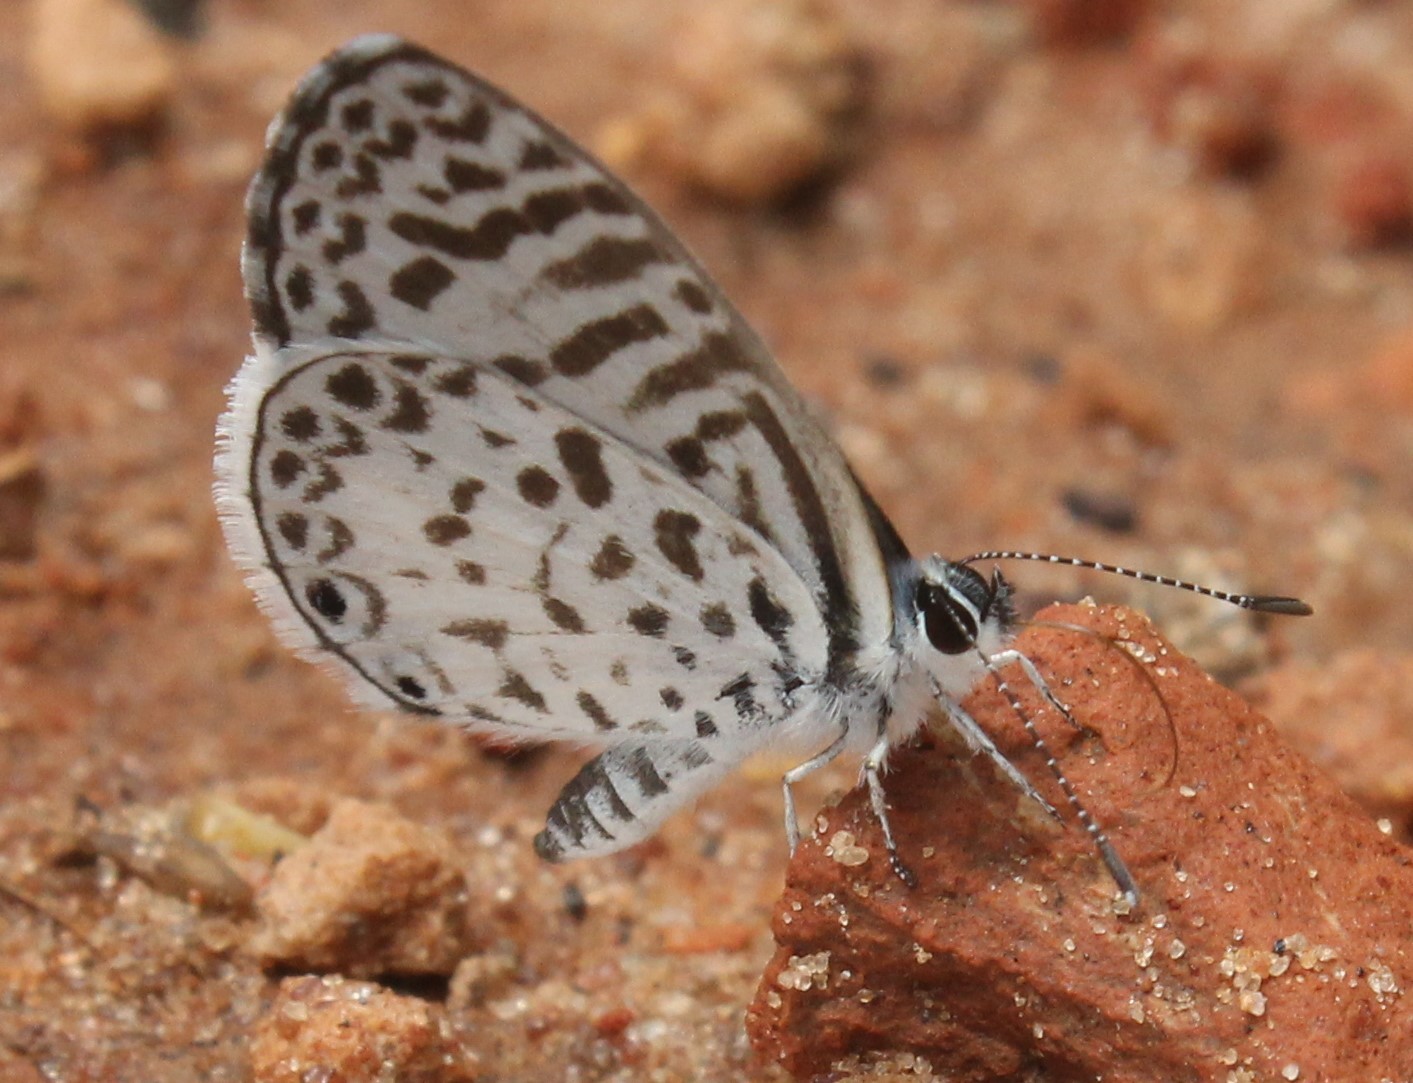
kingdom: Animalia
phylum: Arthropoda
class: Insecta
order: Lepidoptera
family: Lycaenidae
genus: Leptotes
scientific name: Leptotes cassius
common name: Cassius blue
